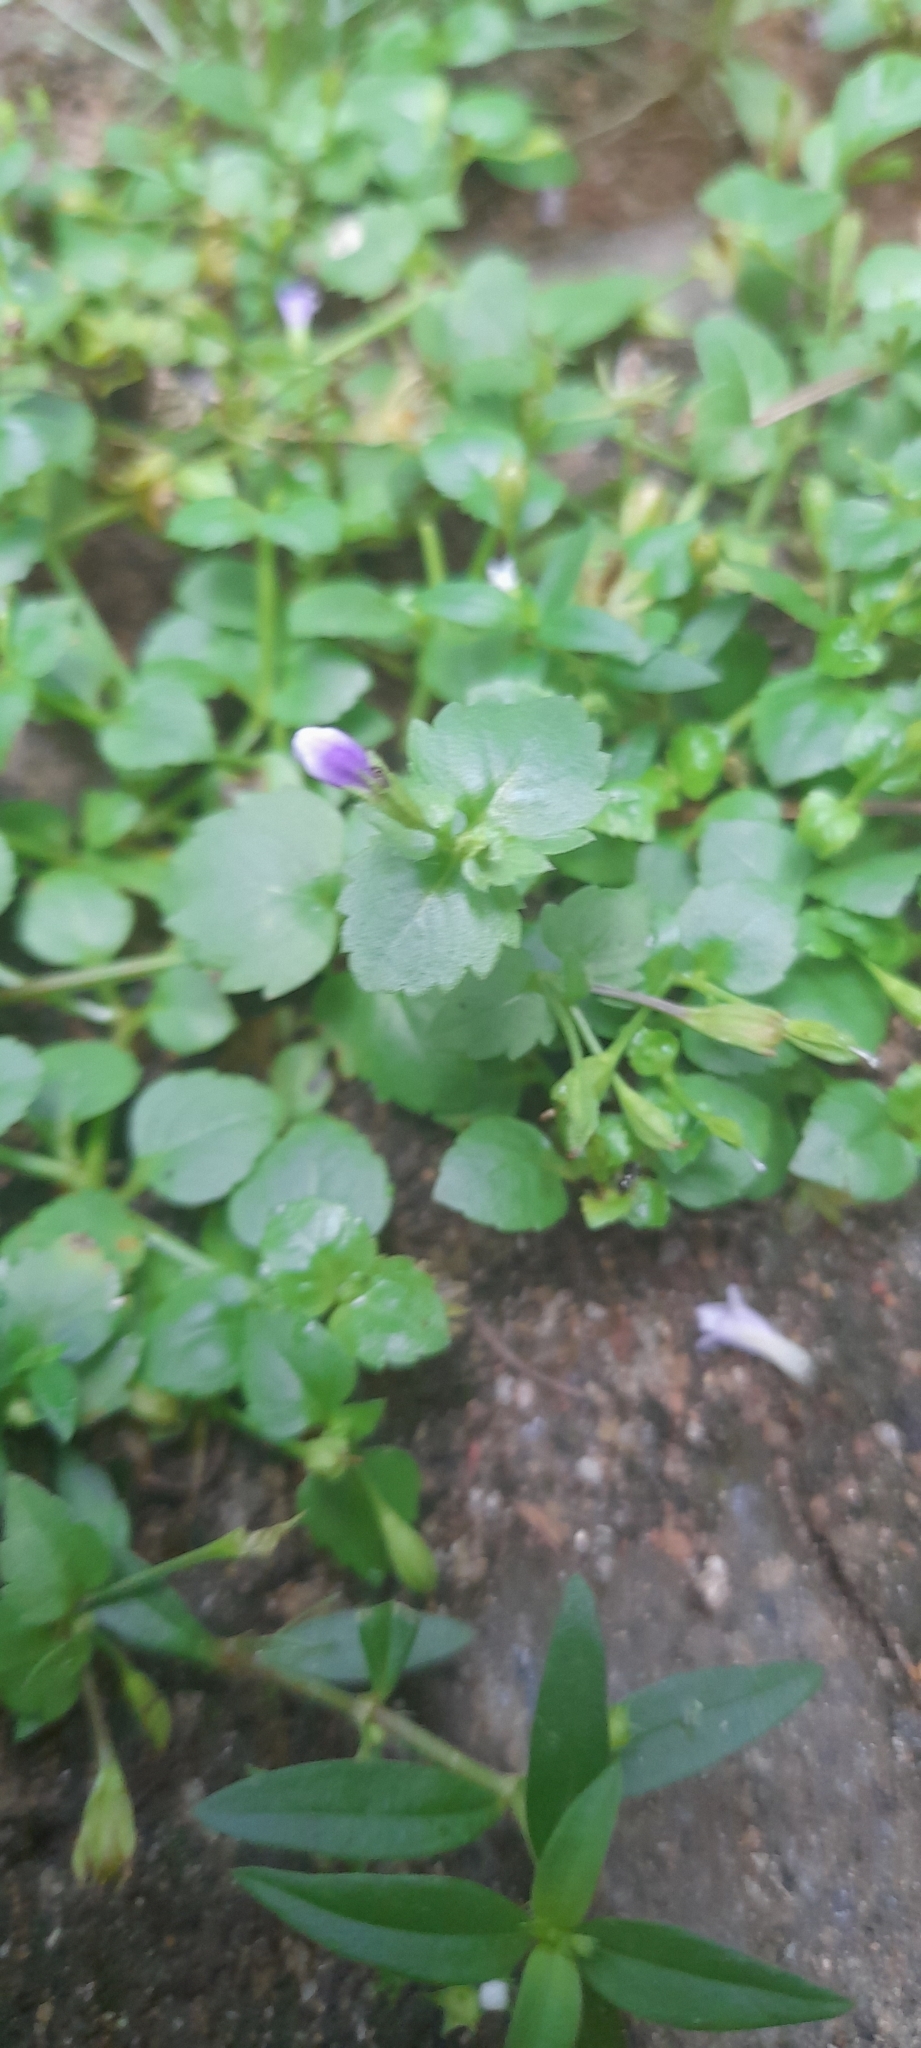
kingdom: Plantae
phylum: Tracheophyta
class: Magnoliopsida
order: Lamiales
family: Linderniaceae
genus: Torenia
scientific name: Torenia crustacea
